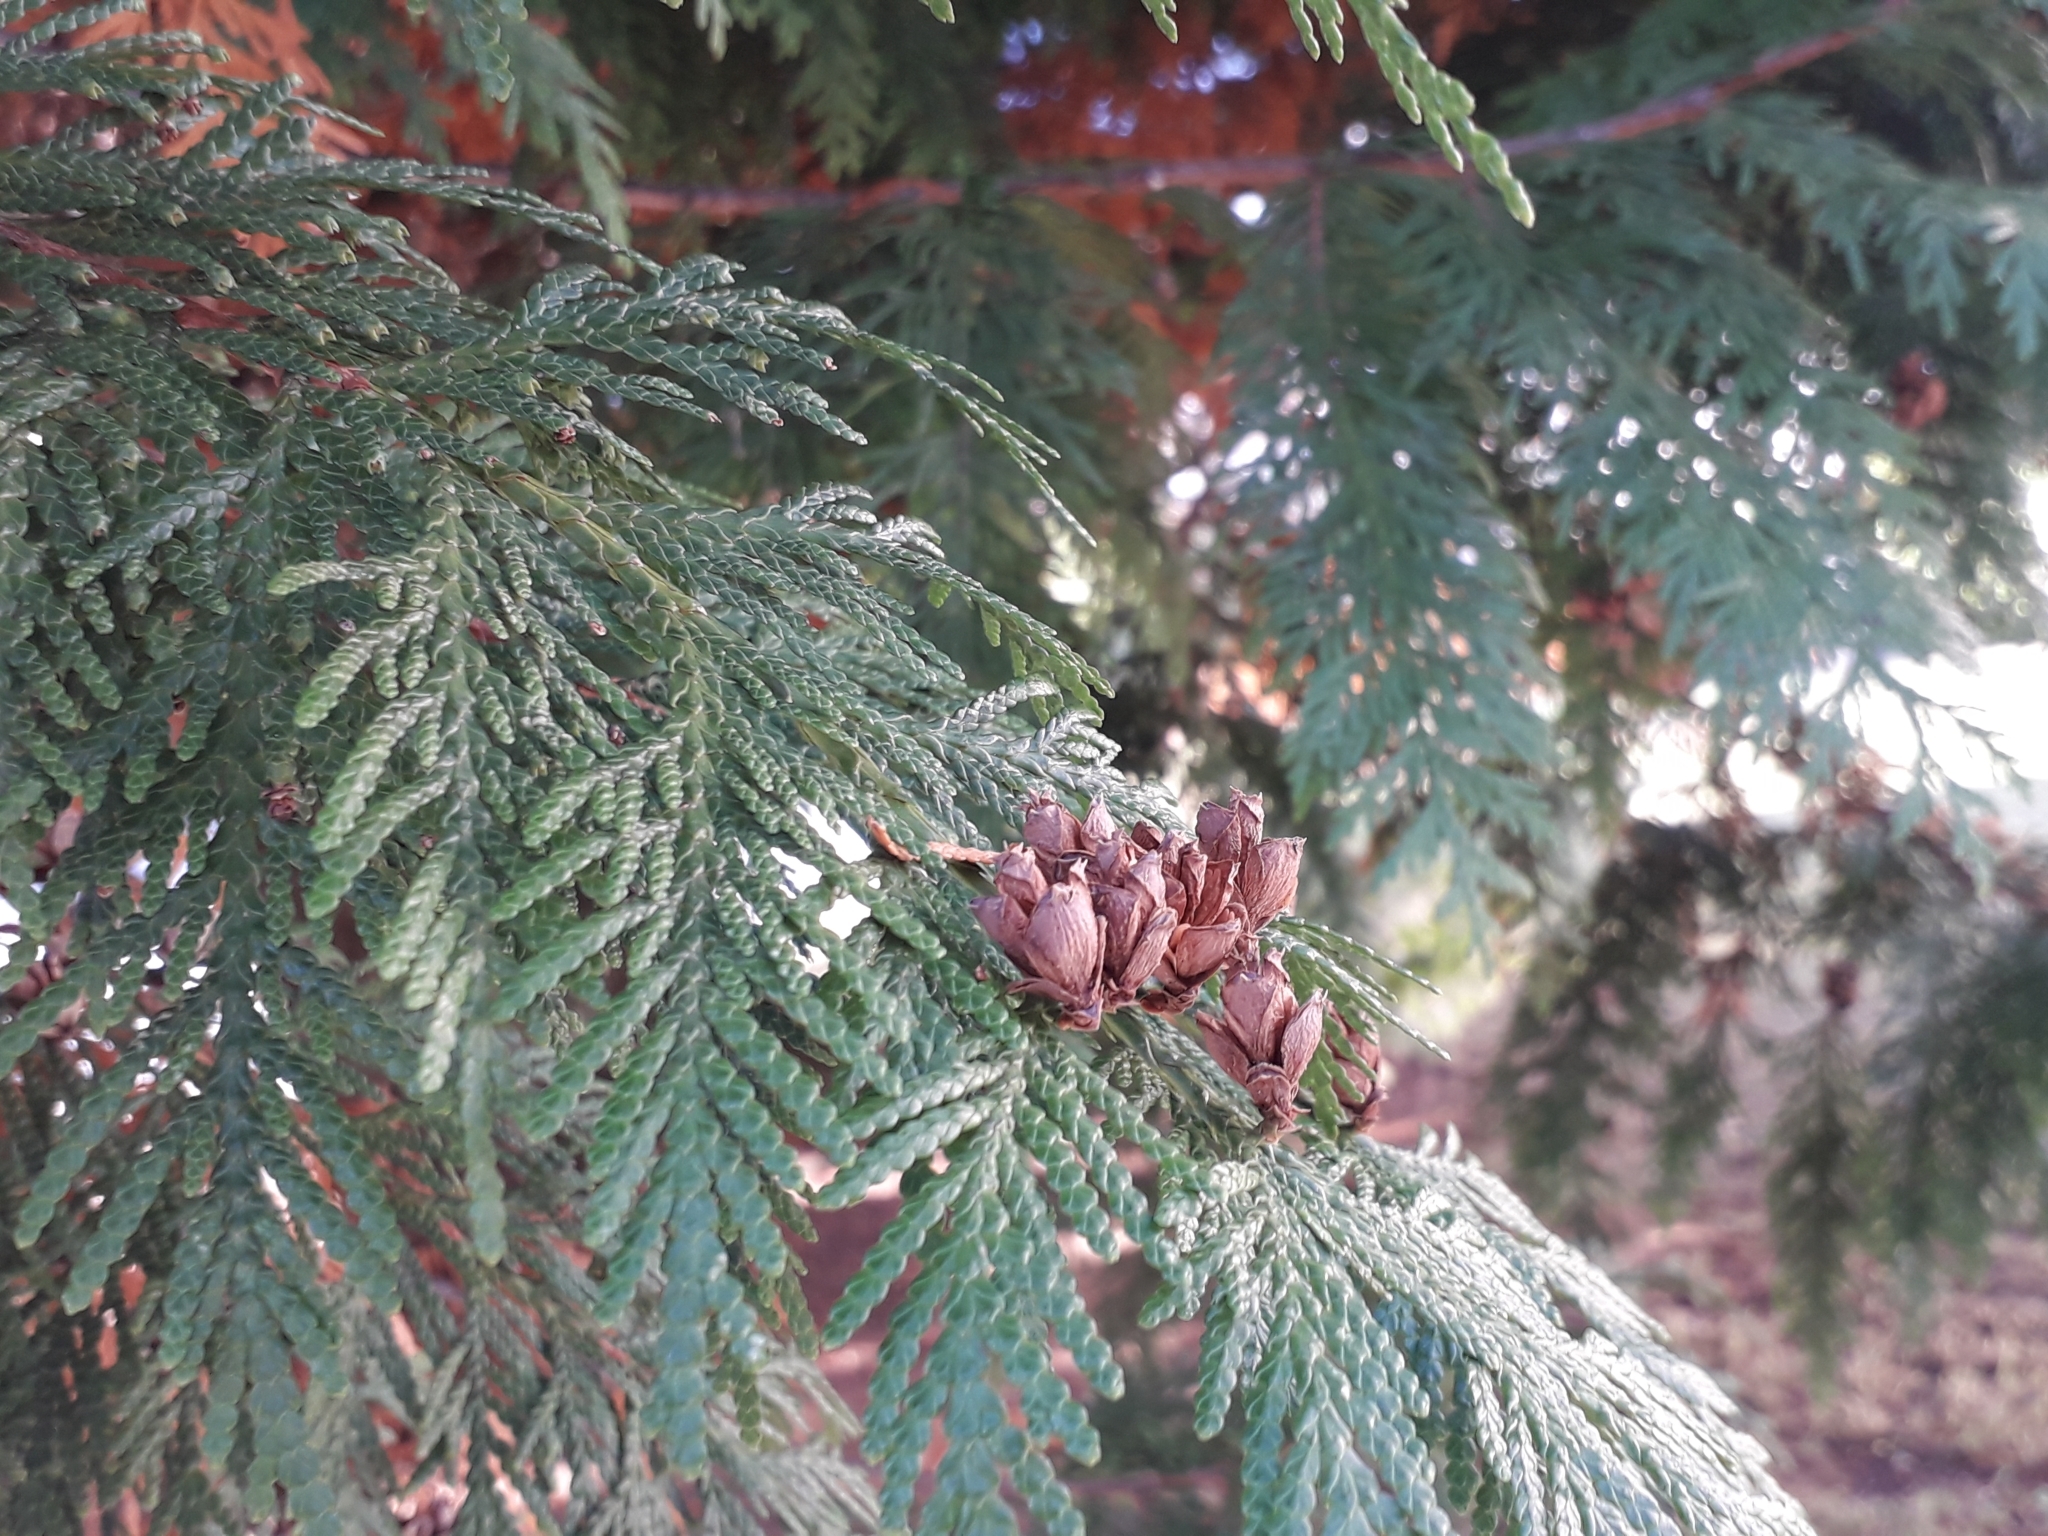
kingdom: Plantae
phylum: Tracheophyta
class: Pinopsida
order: Pinales
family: Cupressaceae
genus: Thuja
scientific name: Thuja plicata
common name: Western red-cedar
